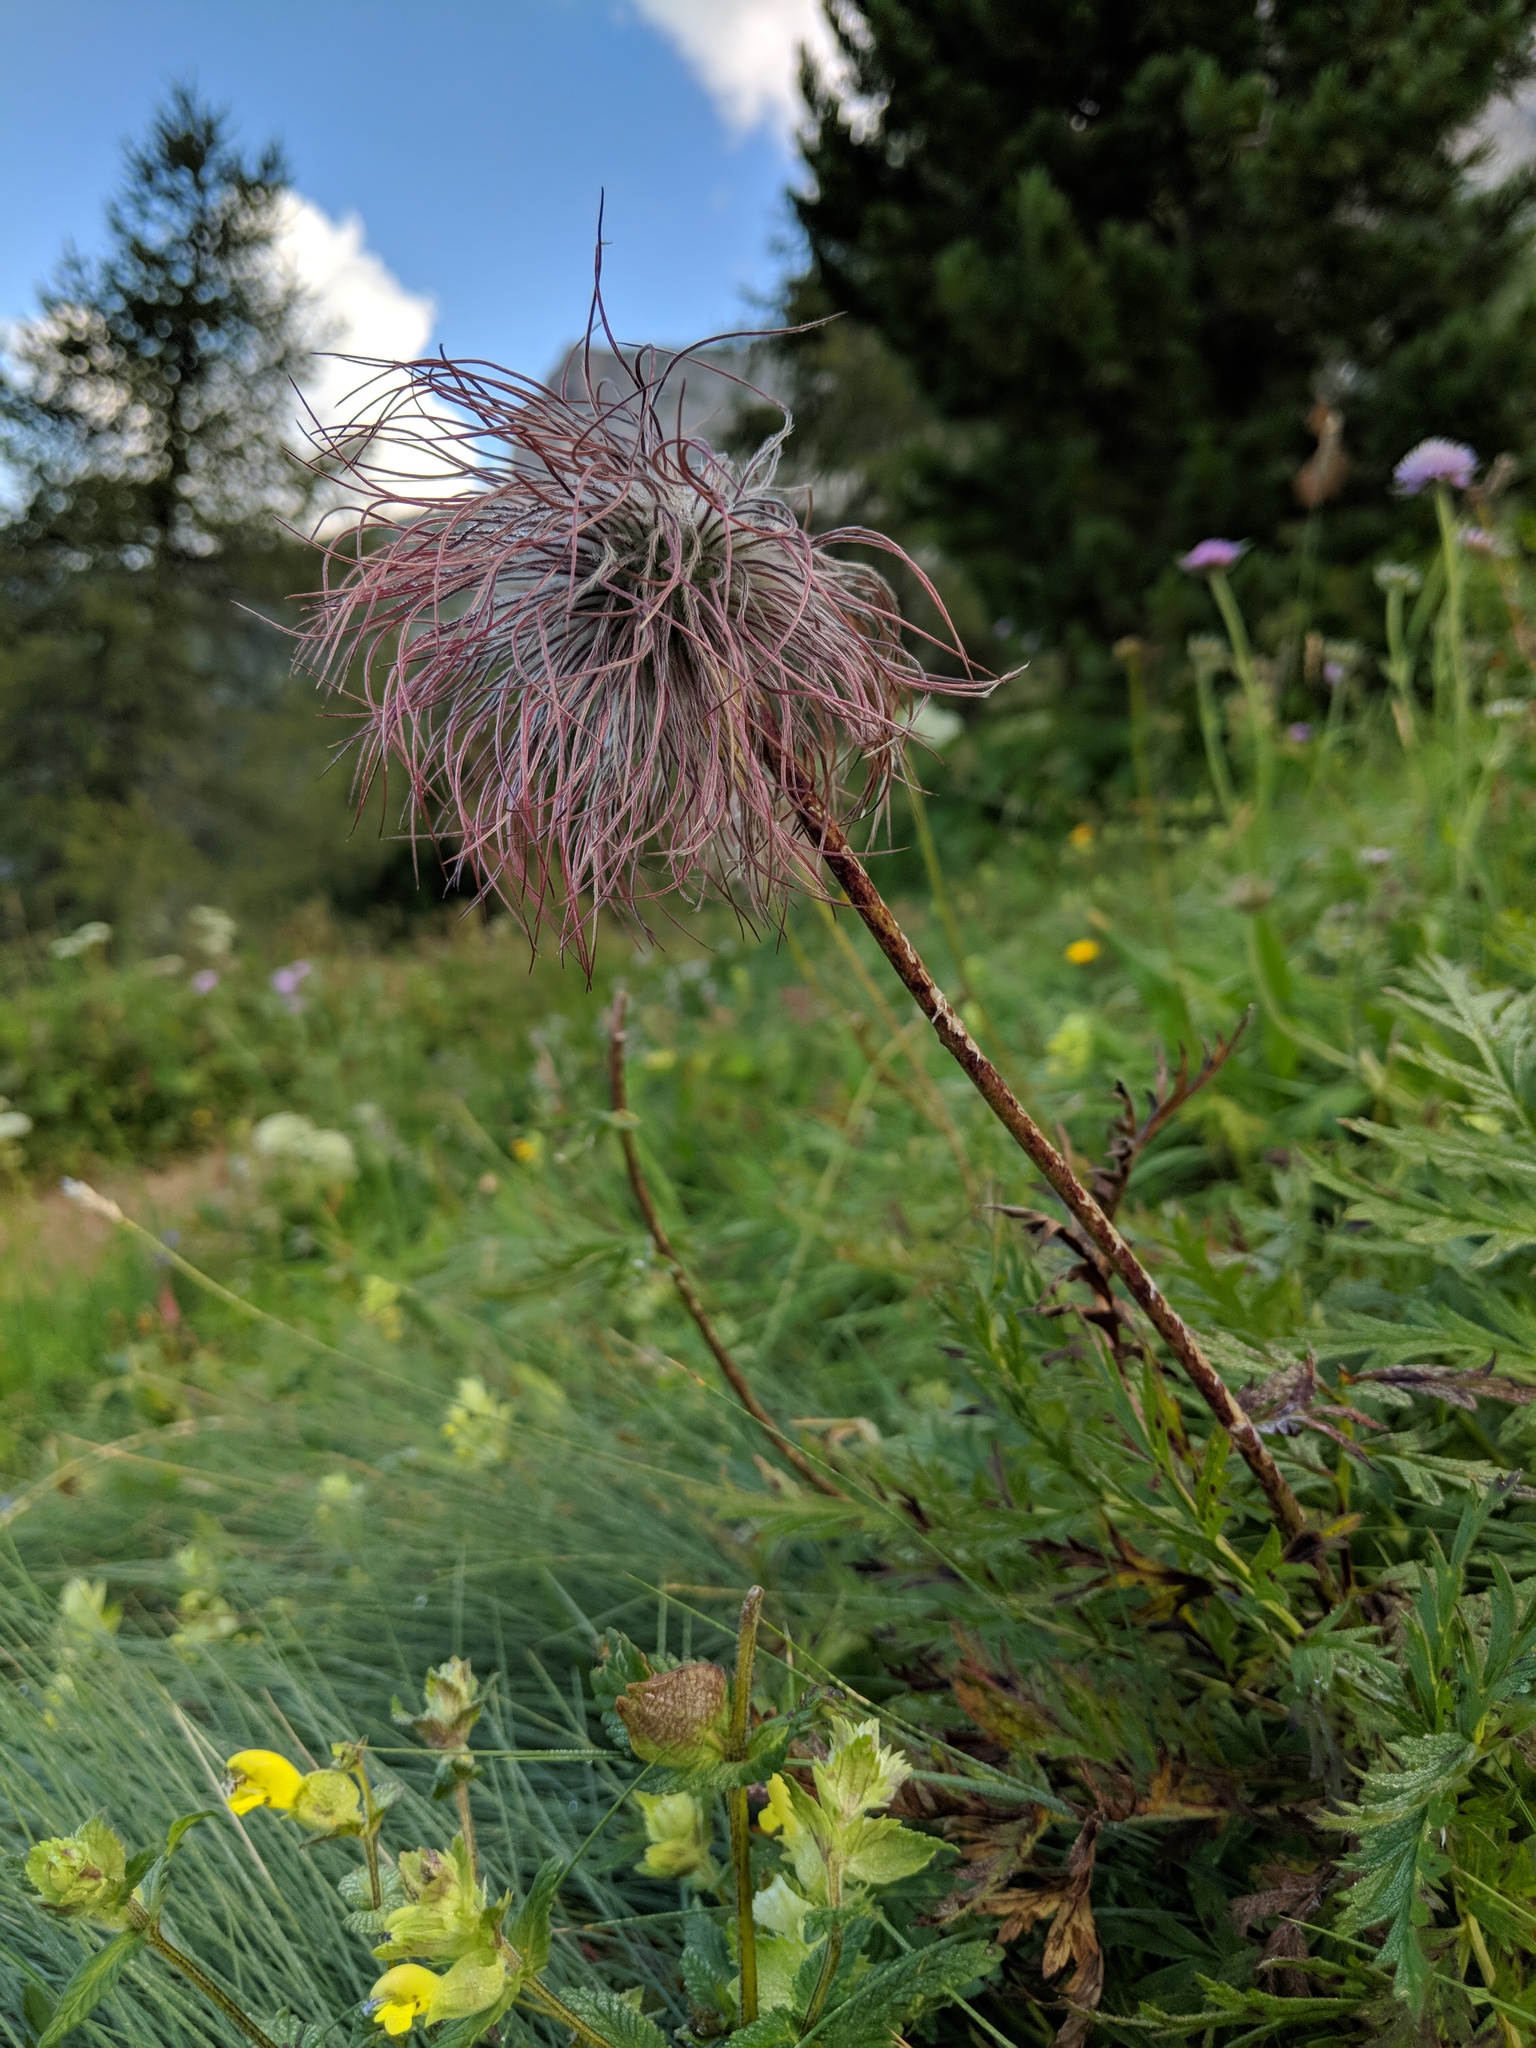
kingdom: Plantae
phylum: Tracheophyta
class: Magnoliopsida
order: Ranunculales
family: Ranunculaceae
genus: Pulsatilla
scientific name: Pulsatilla alpina
